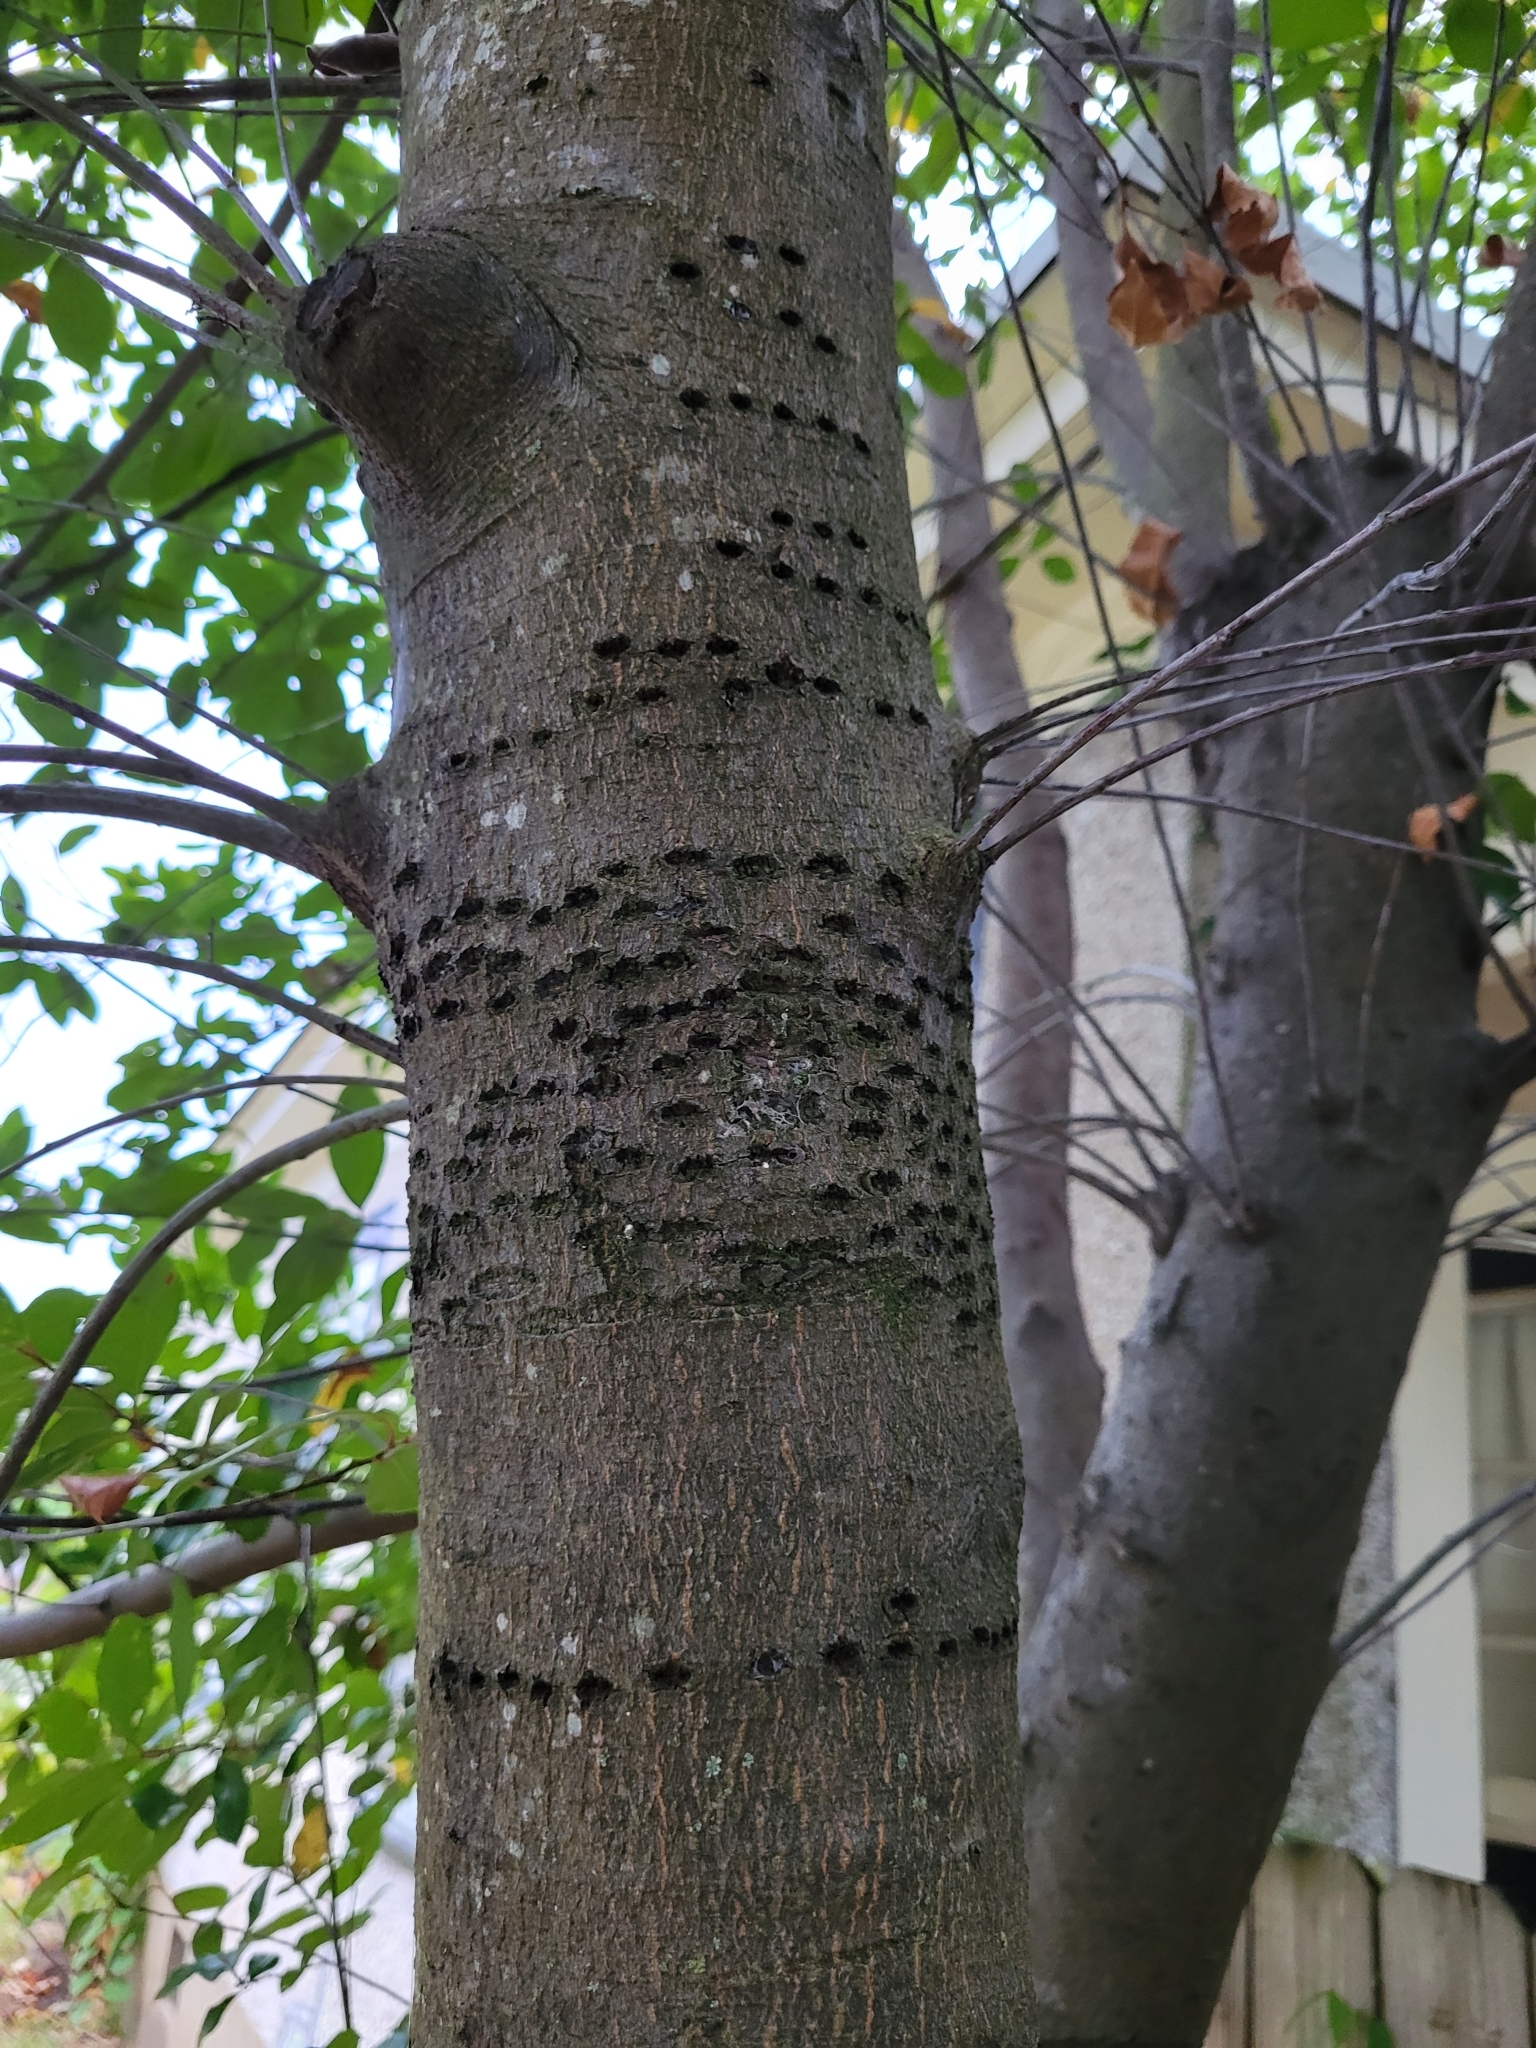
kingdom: Animalia
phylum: Chordata
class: Aves
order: Piciformes
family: Picidae
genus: Sphyrapicus
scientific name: Sphyrapicus varius
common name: Yellow-bellied sapsucker
